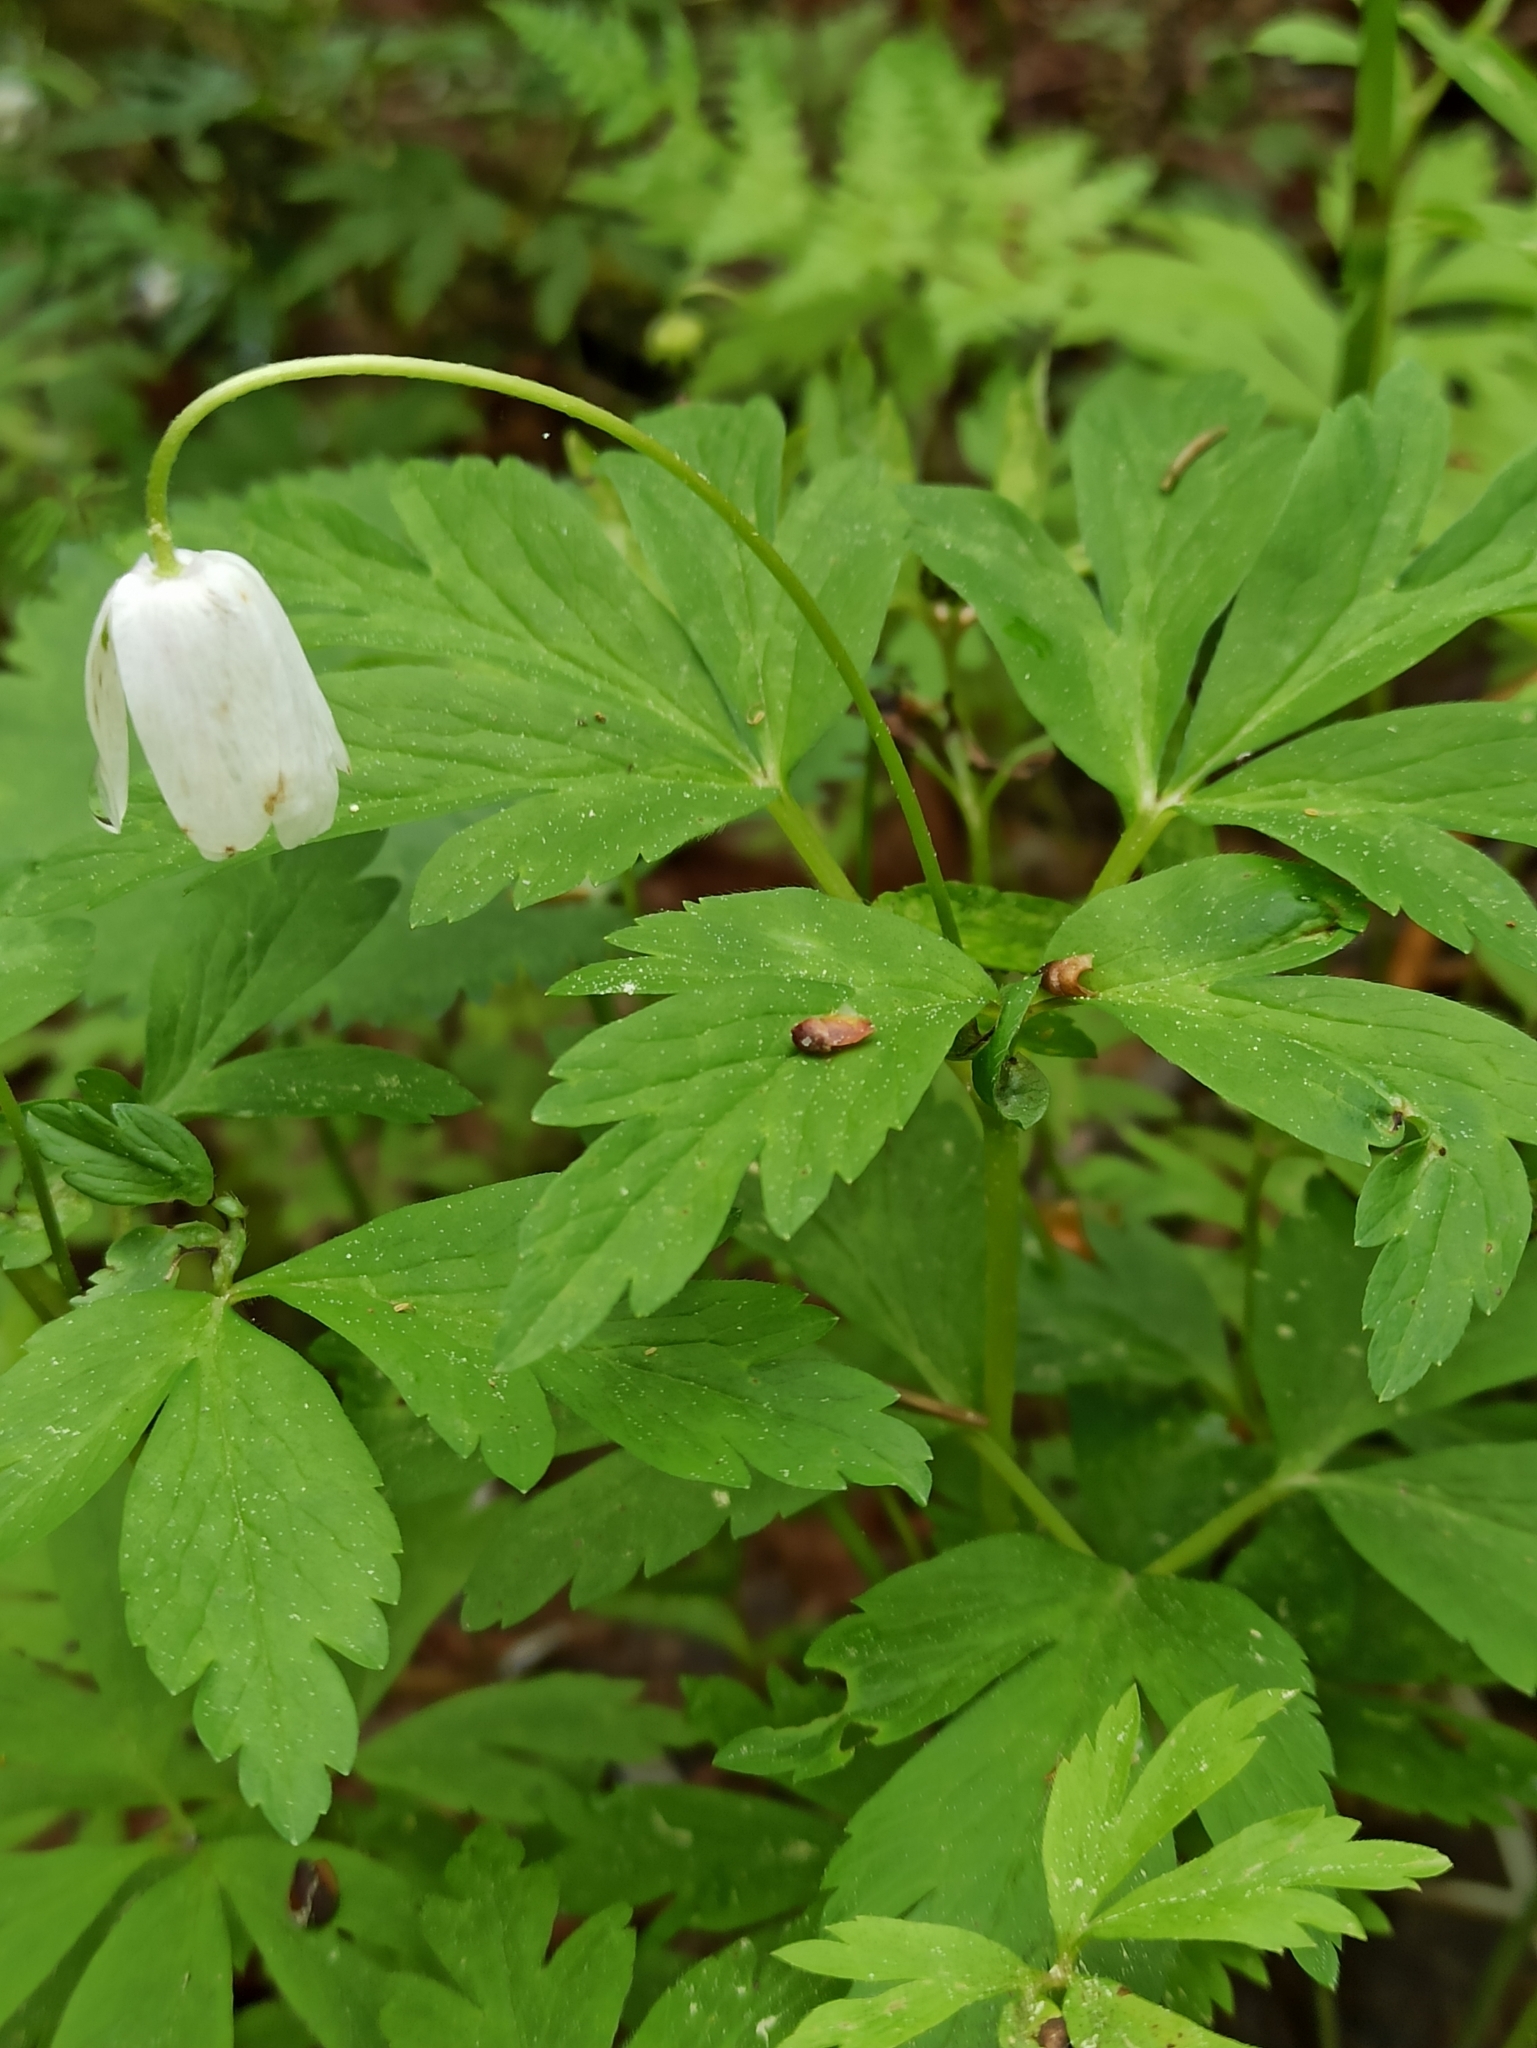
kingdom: Plantae
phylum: Tracheophyta
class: Magnoliopsida
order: Ranunculales
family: Ranunculaceae
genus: Anemone
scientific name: Anemone nemorosa
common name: Wood anemone
